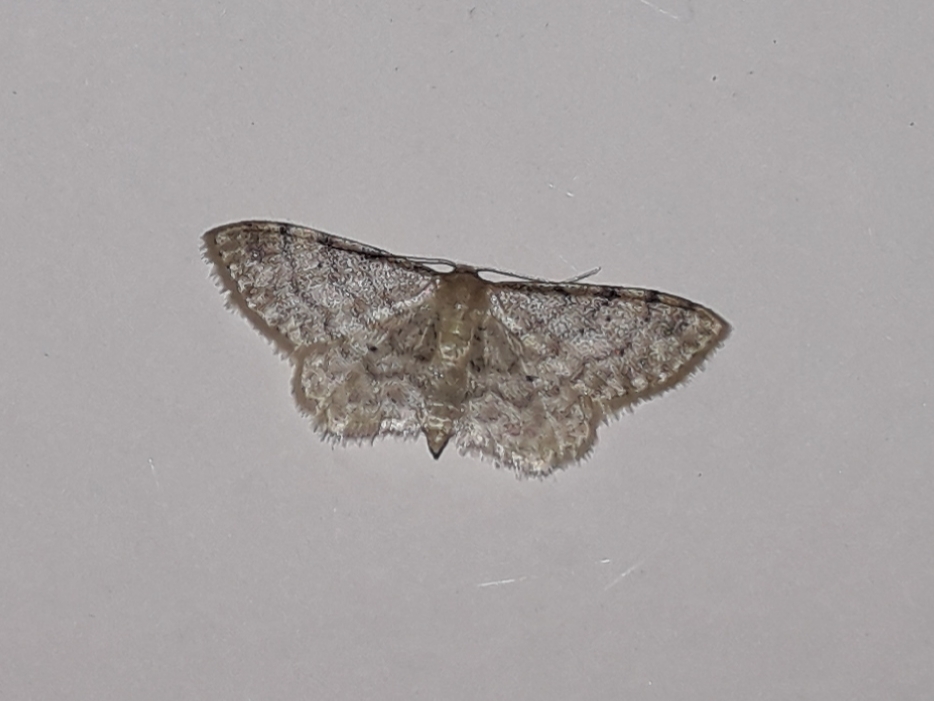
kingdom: Animalia
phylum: Arthropoda
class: Insecta
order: Lepidoptera
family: Geometridae
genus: Idaea
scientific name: Idaea fuscovenosa
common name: Dwarf cream wave
